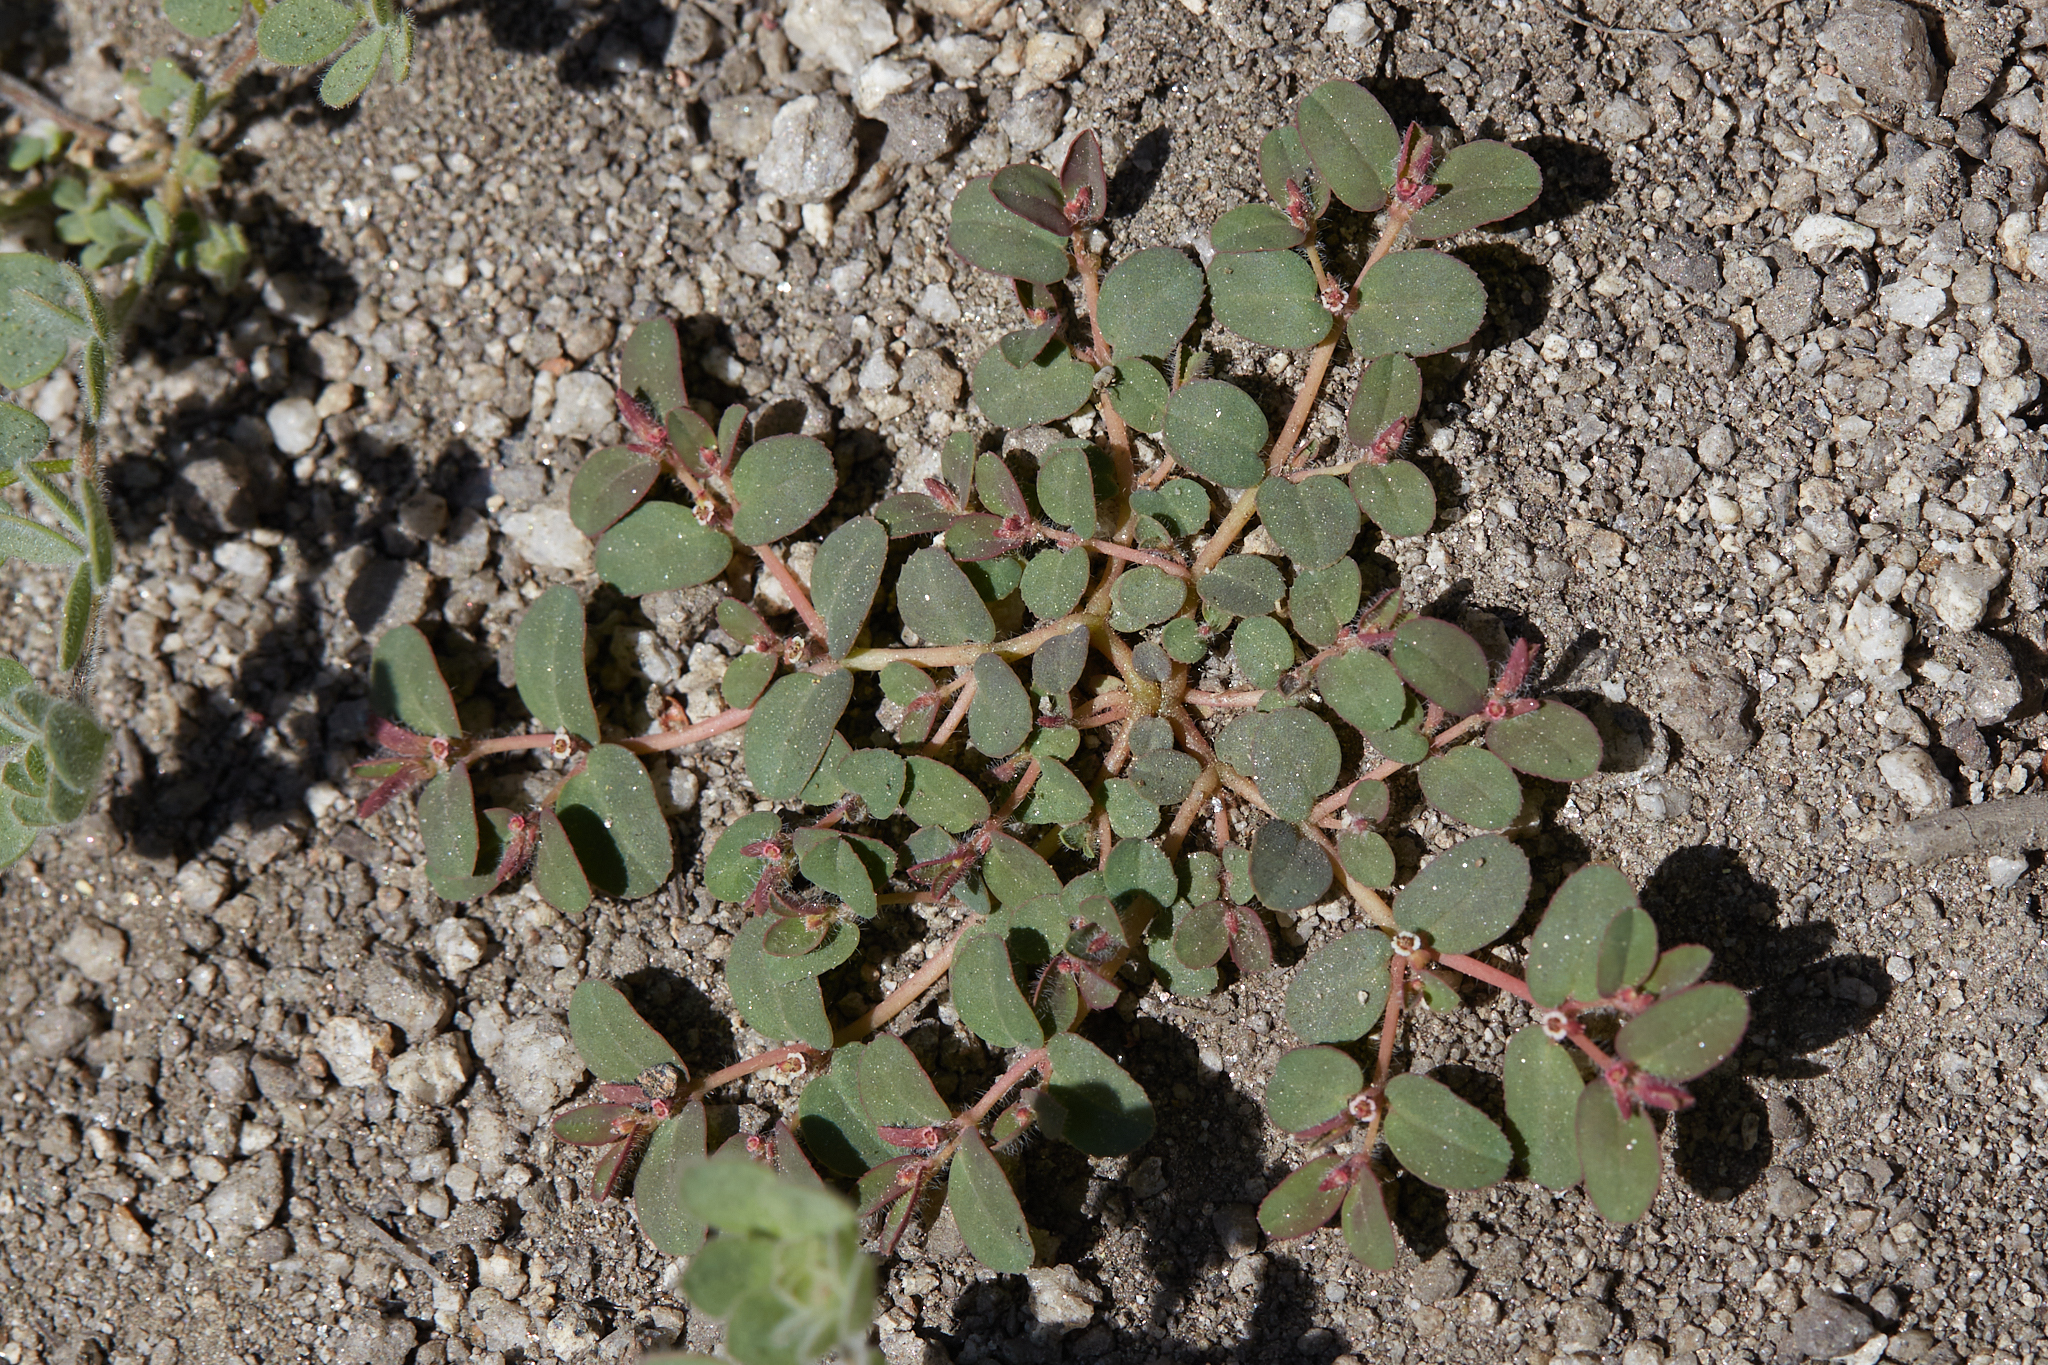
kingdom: Plantae
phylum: Tracheophyta
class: Magnoliopsida
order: Malpighiales
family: Euphorbiaceae
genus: Euphorbia
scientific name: Euphorbia serpillifolia
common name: Thyme-leaf spurge
